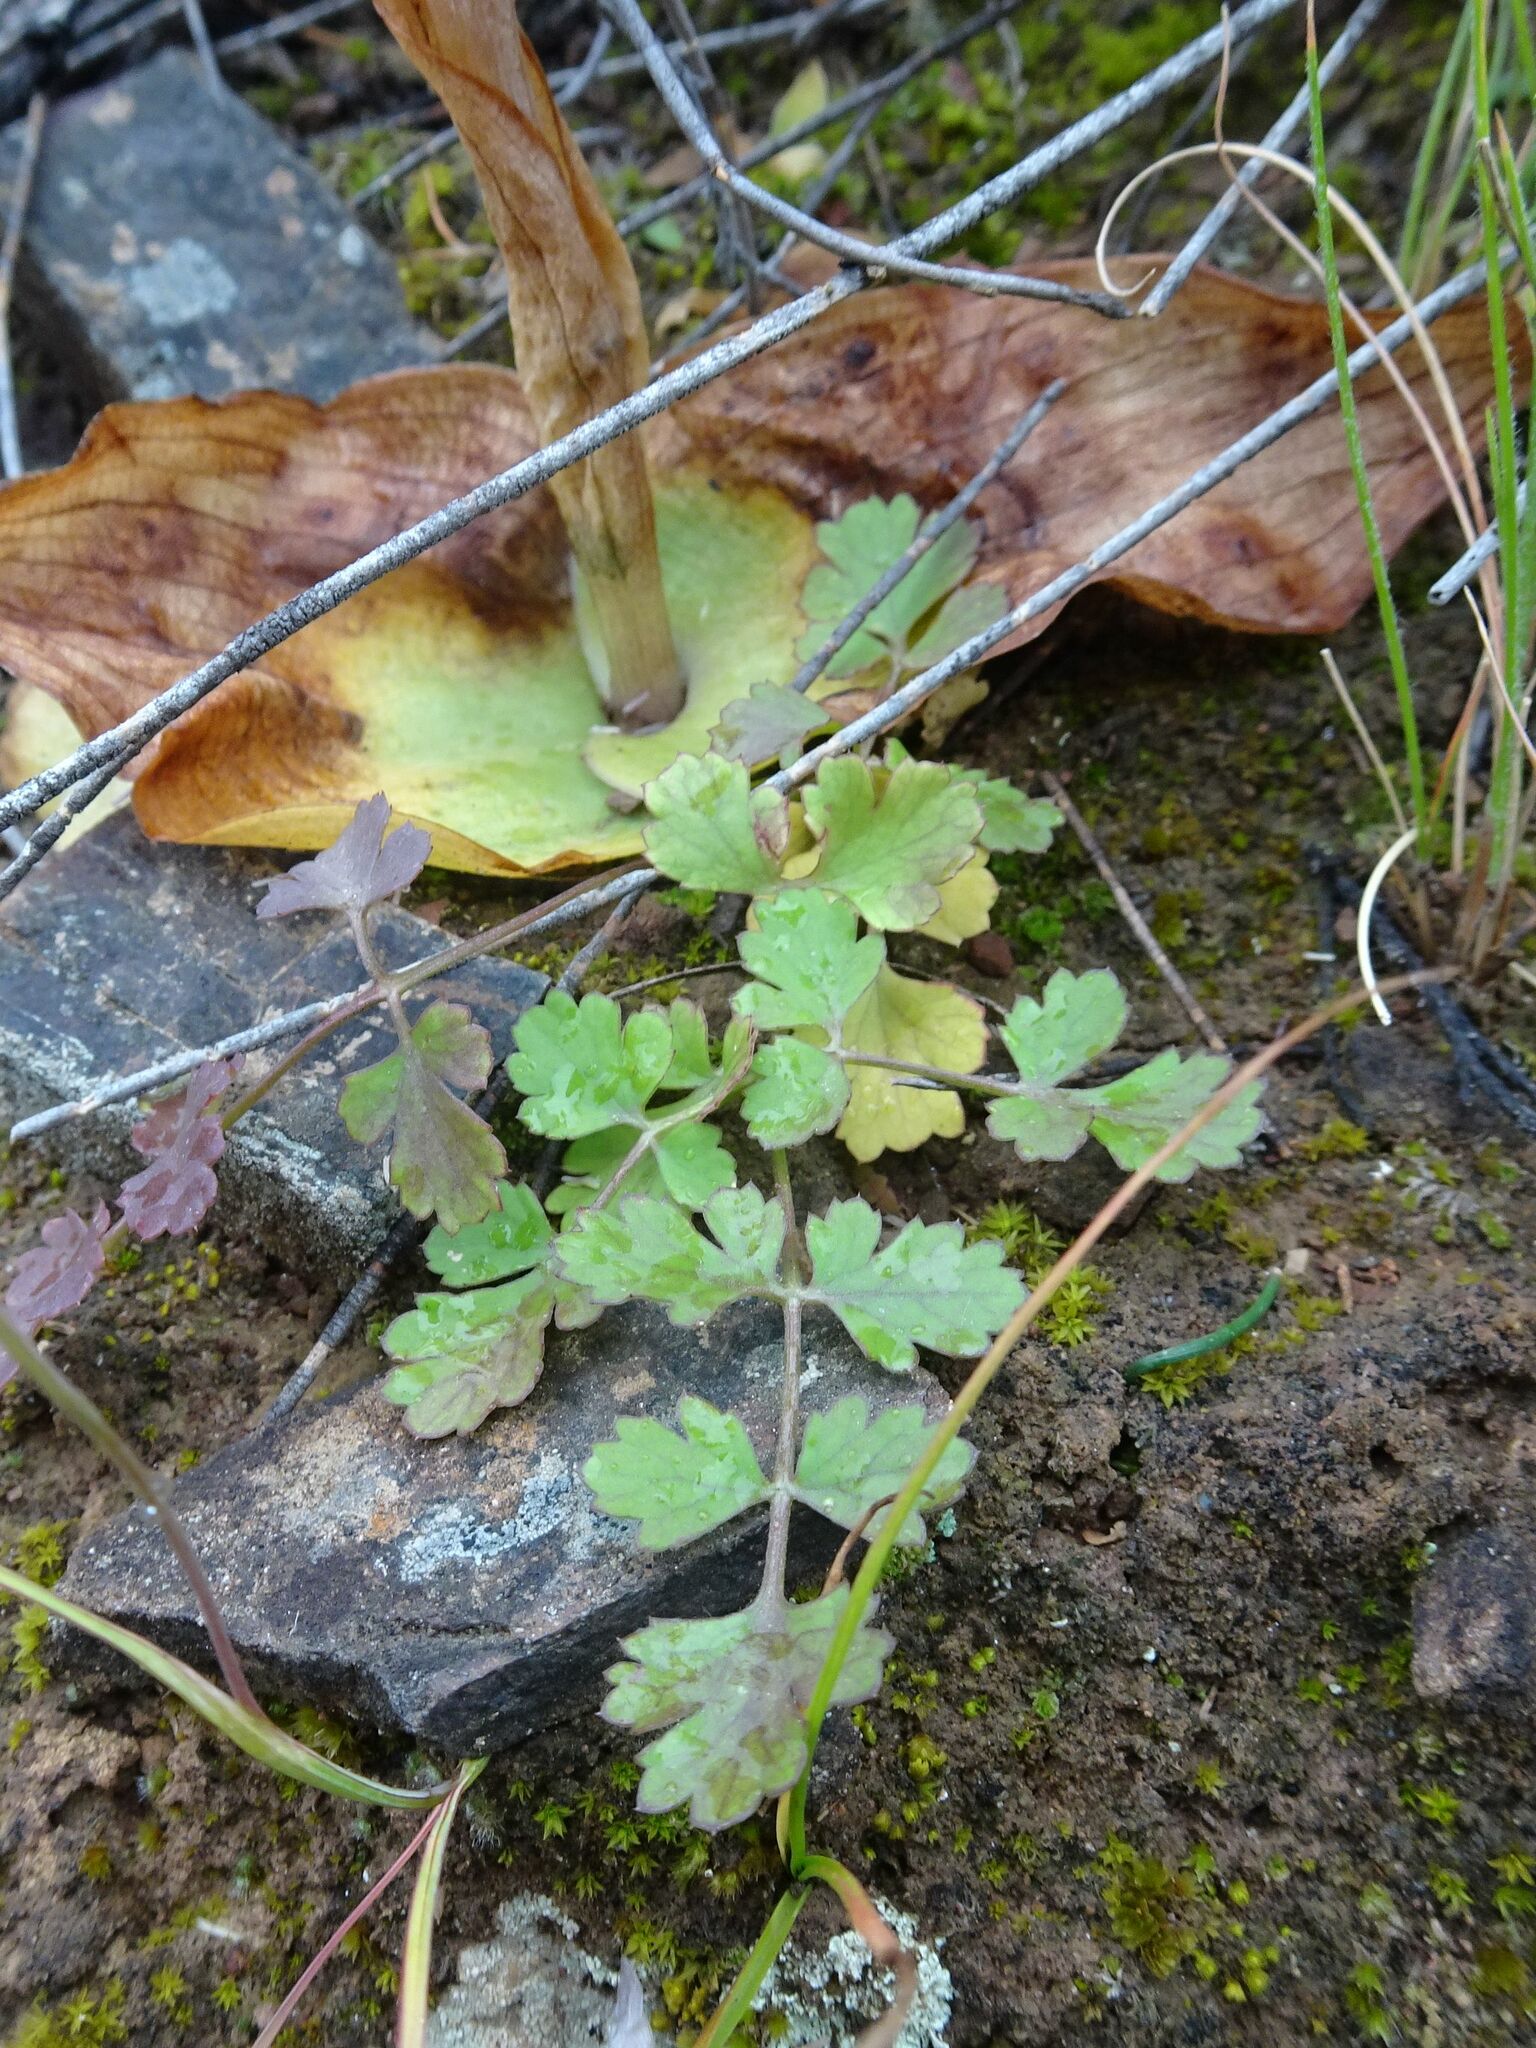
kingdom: Plantae
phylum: Tracheophyta
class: Magnoliopsida
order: Apiales
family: Apiaceae
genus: Chamarea
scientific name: Chamarea gracillima
